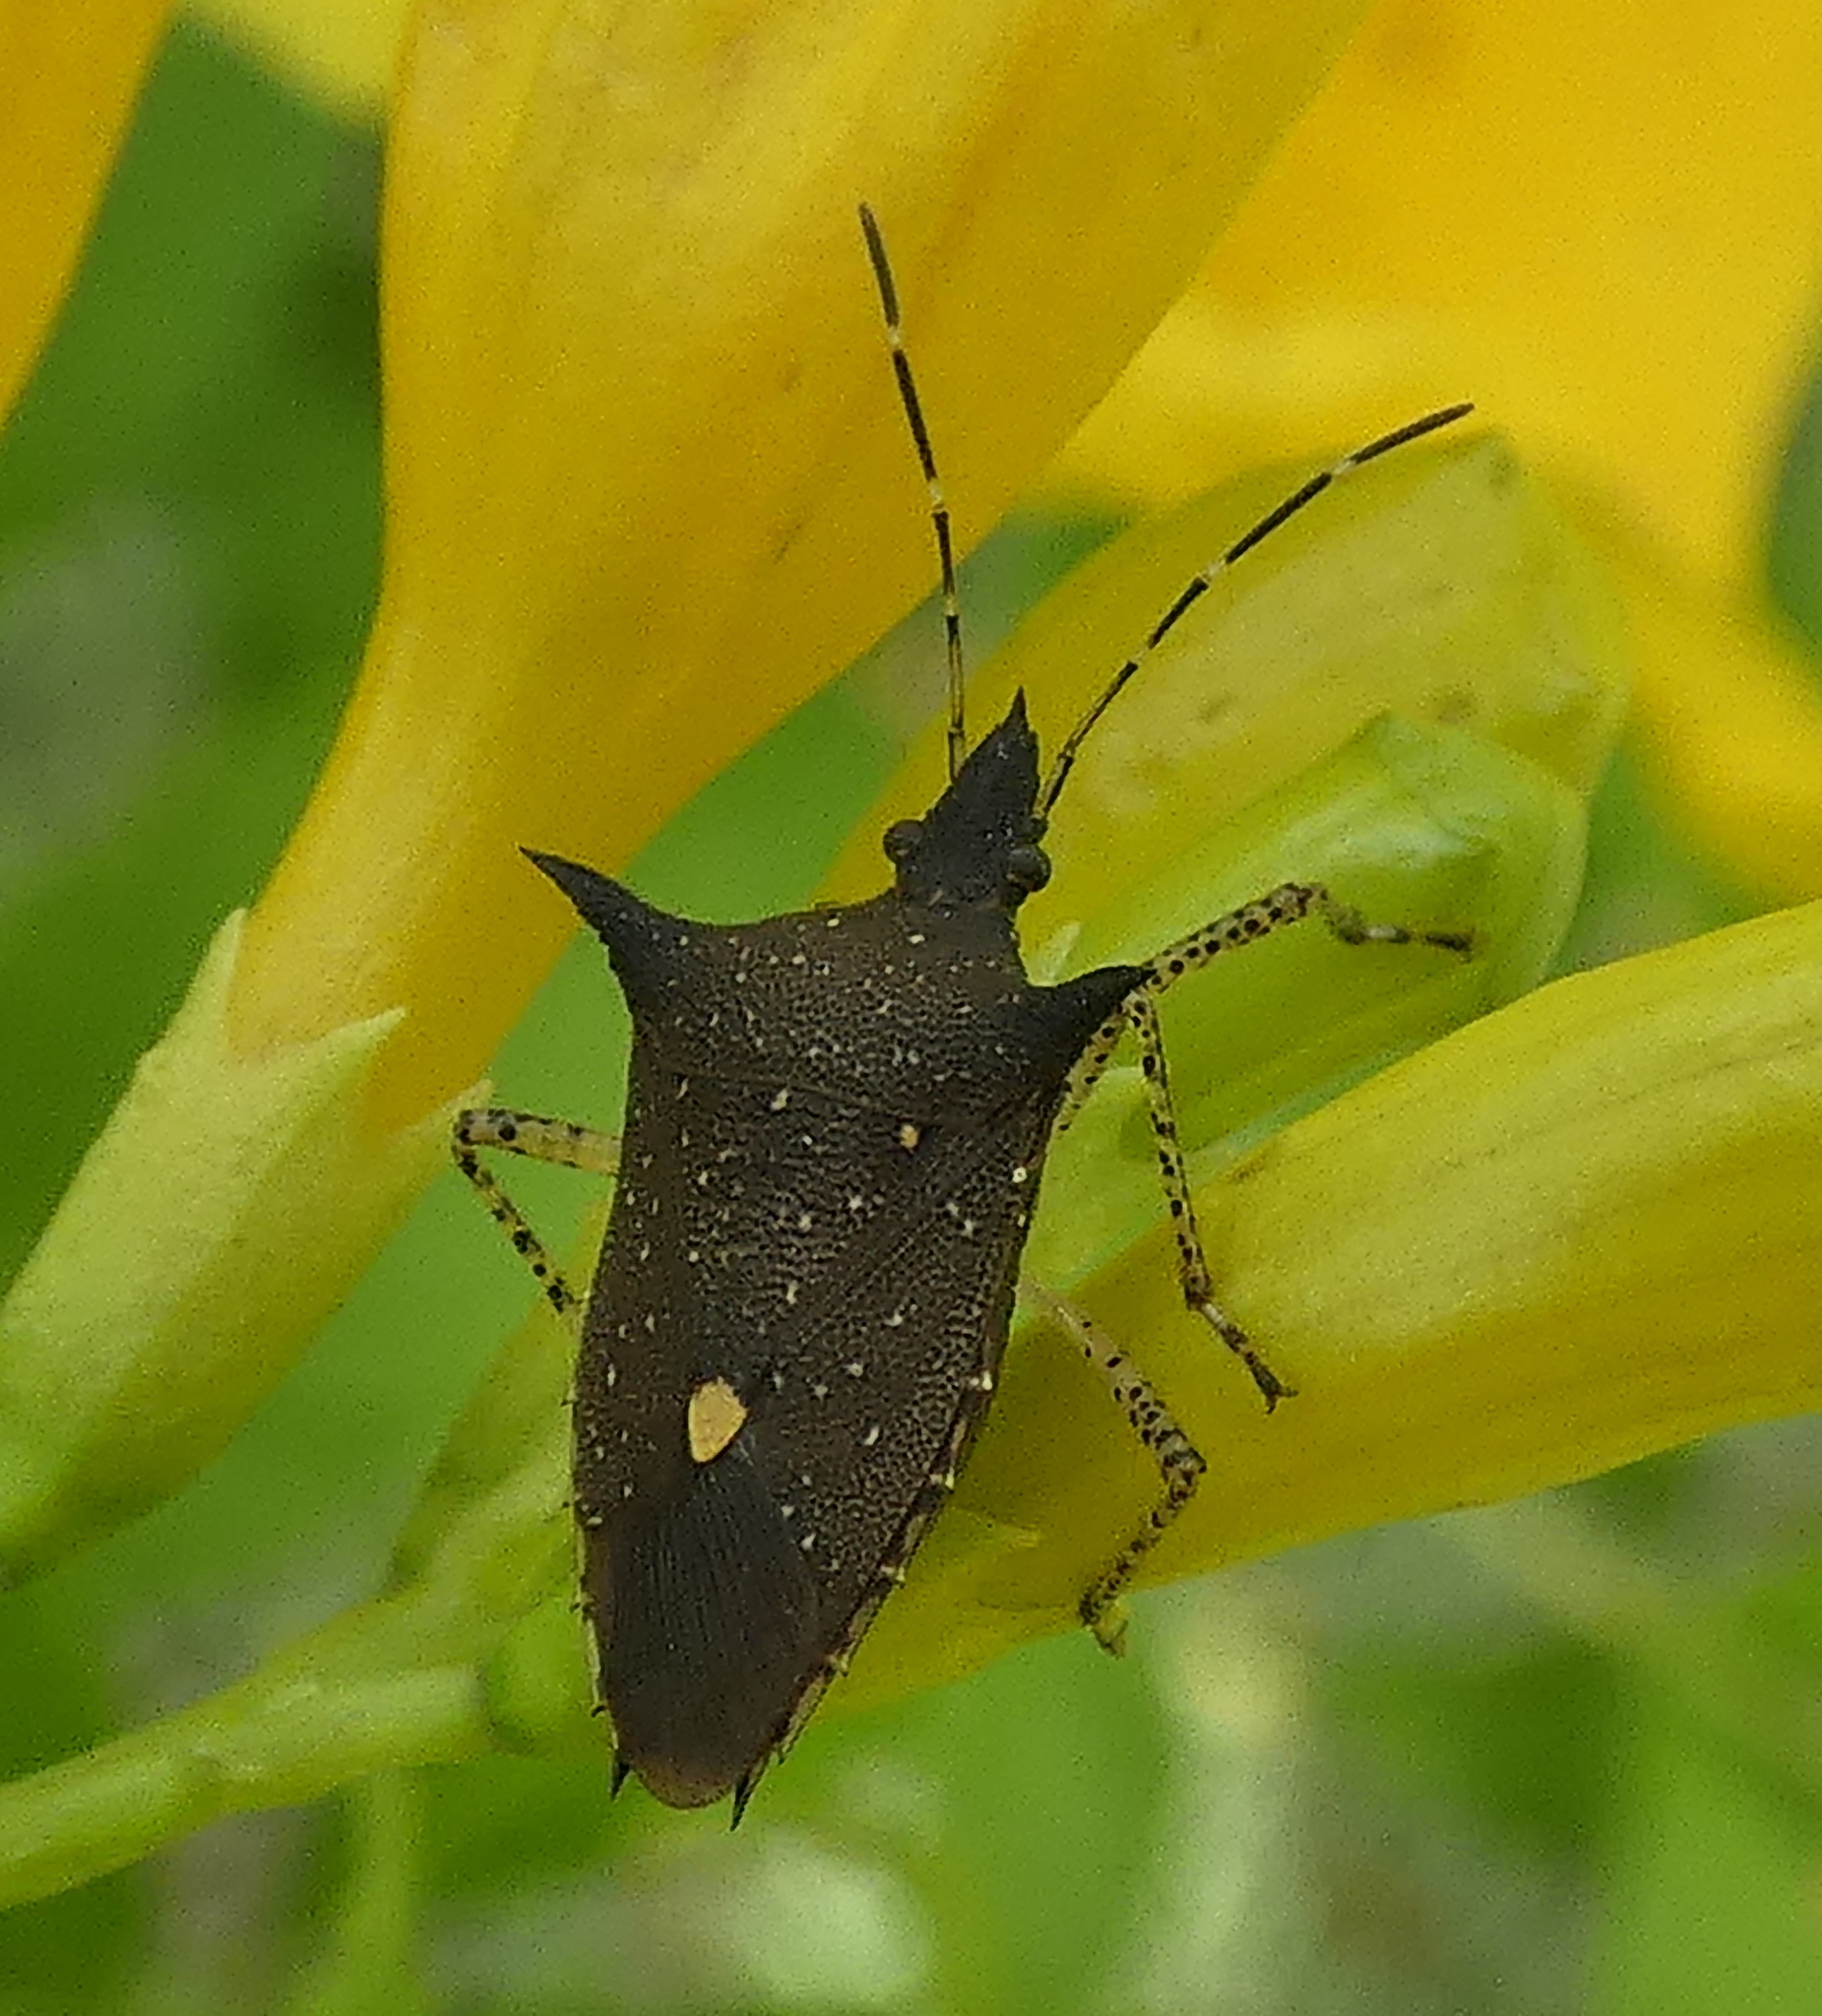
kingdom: Animalia
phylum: Arthropoda
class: Insecta
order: Hemiptera
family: Pentatomidae
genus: Proxys
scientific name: Proxys albopunctulatus
